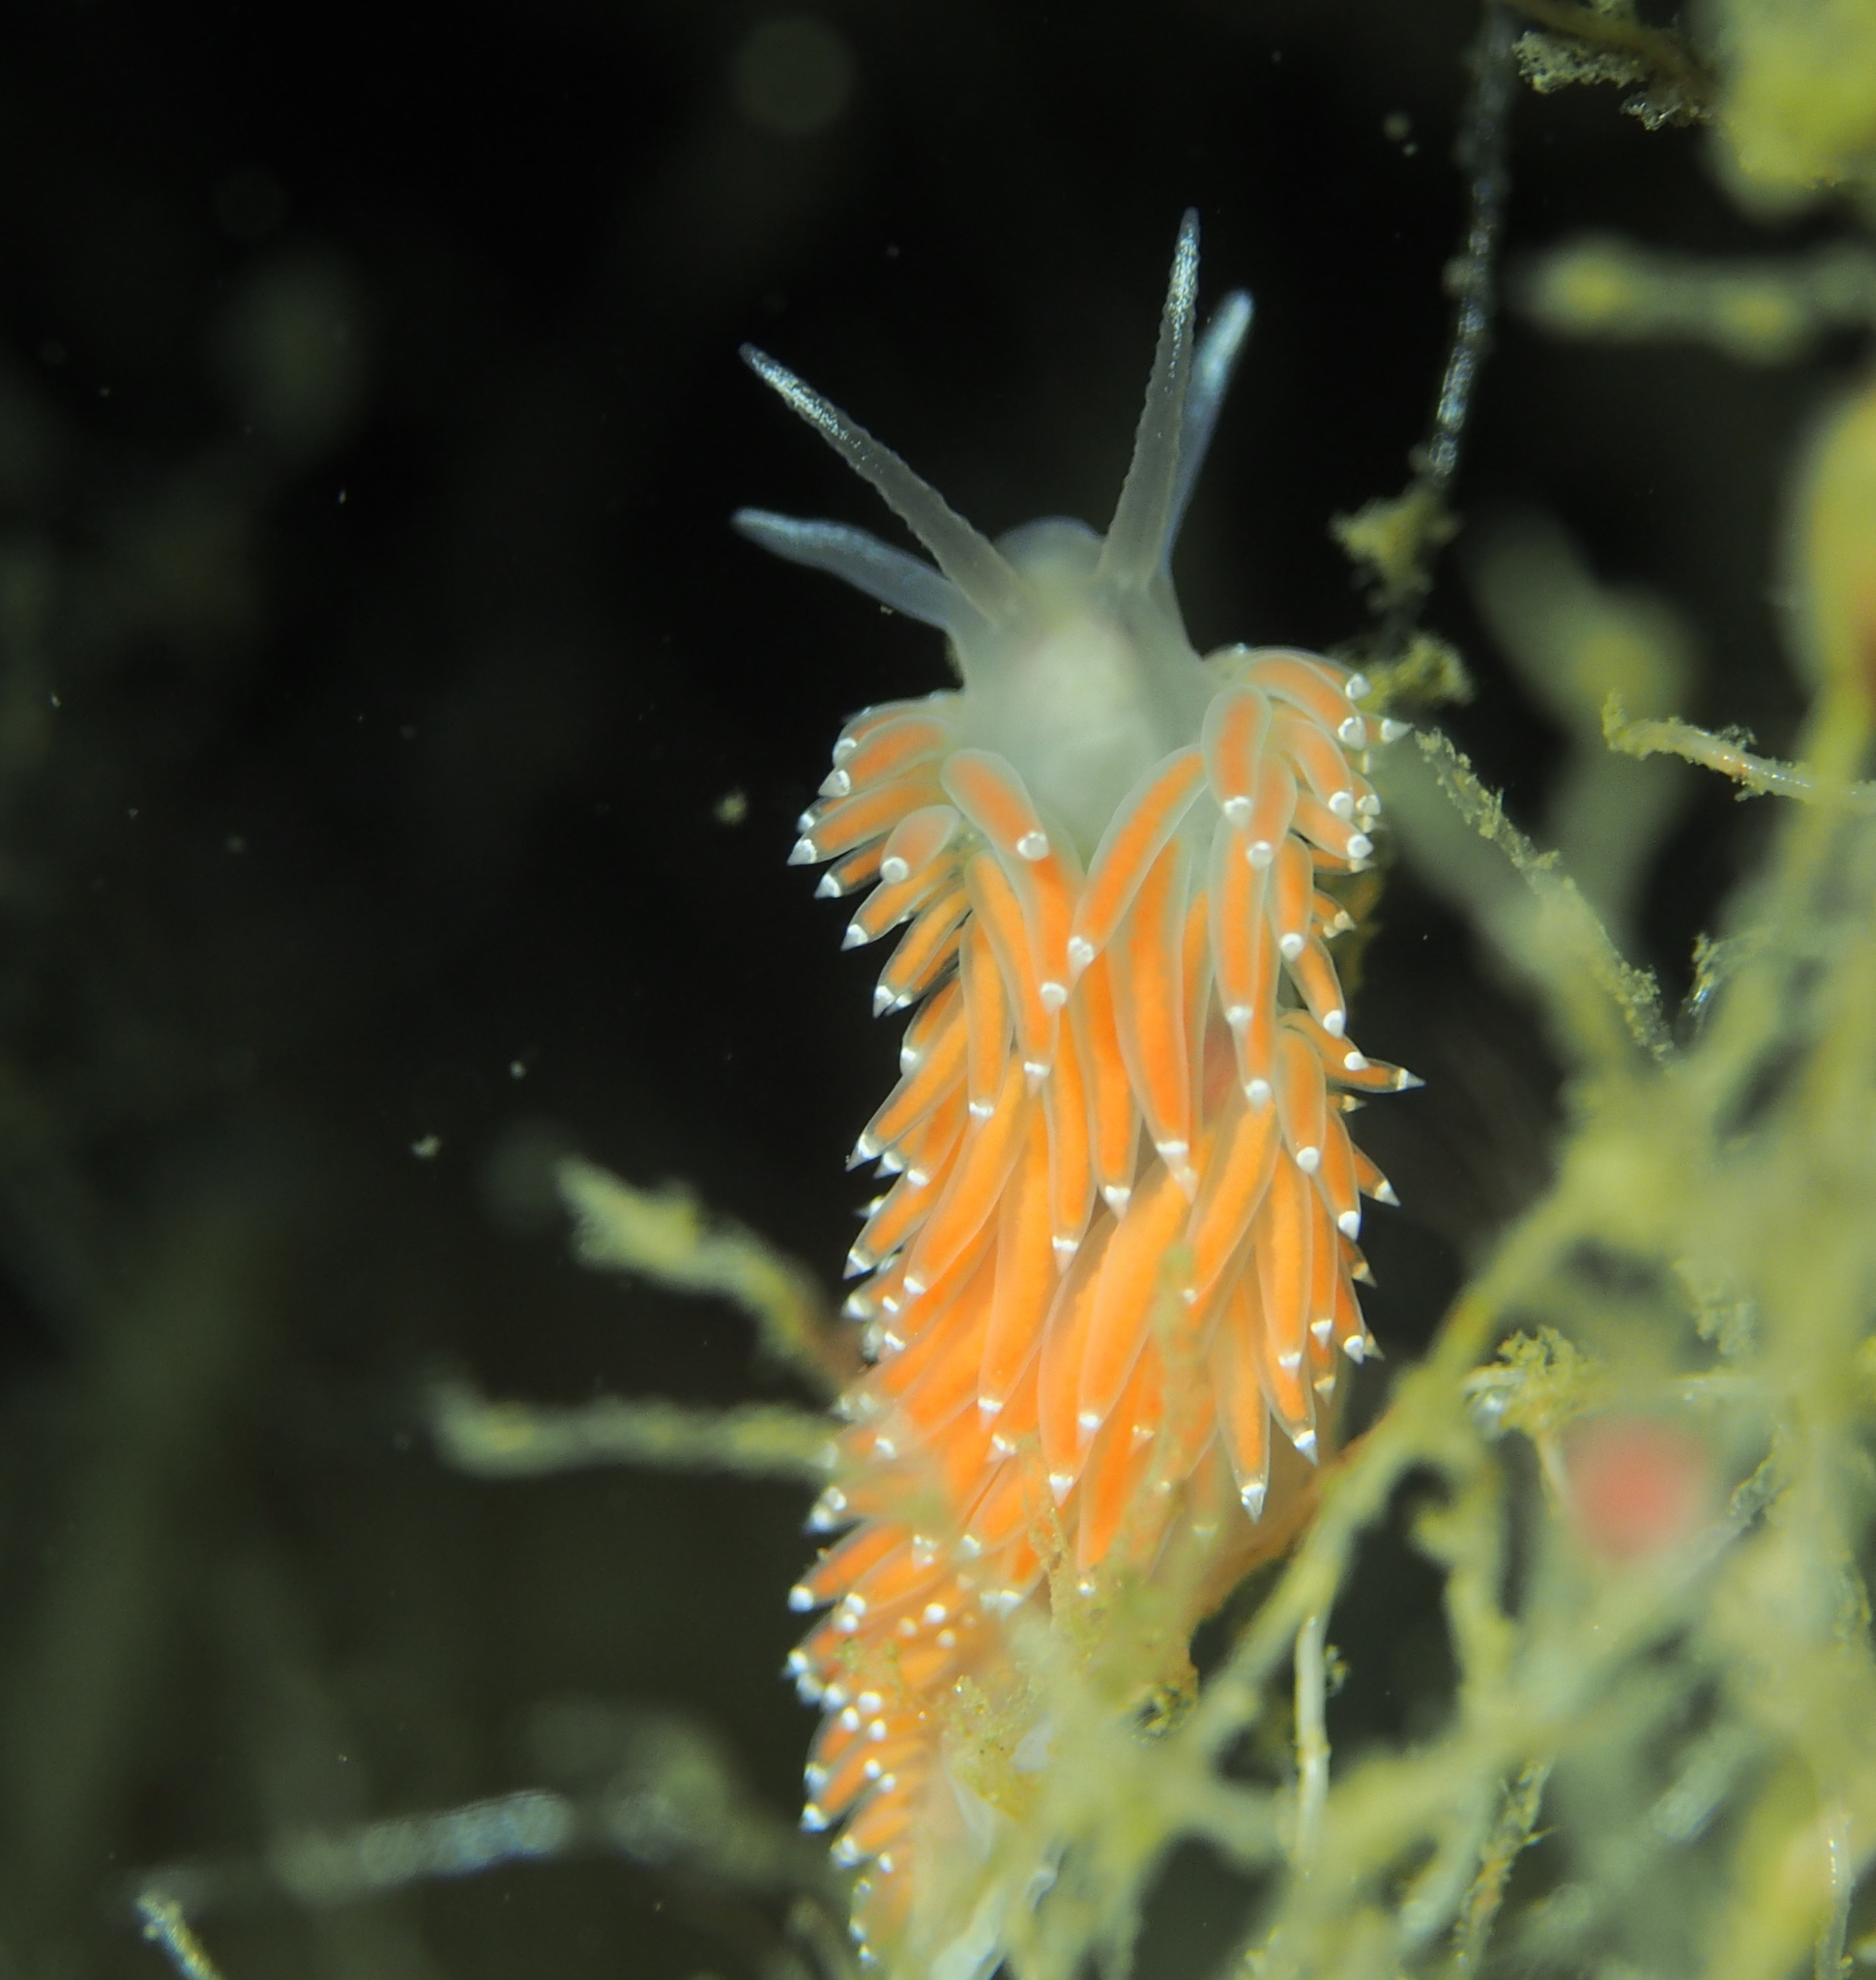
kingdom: Animalia
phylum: Mollusca
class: Gastropoda
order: Nudibranchia
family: Coryphellidae
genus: Coryphella
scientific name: Coryphella verrucosa
